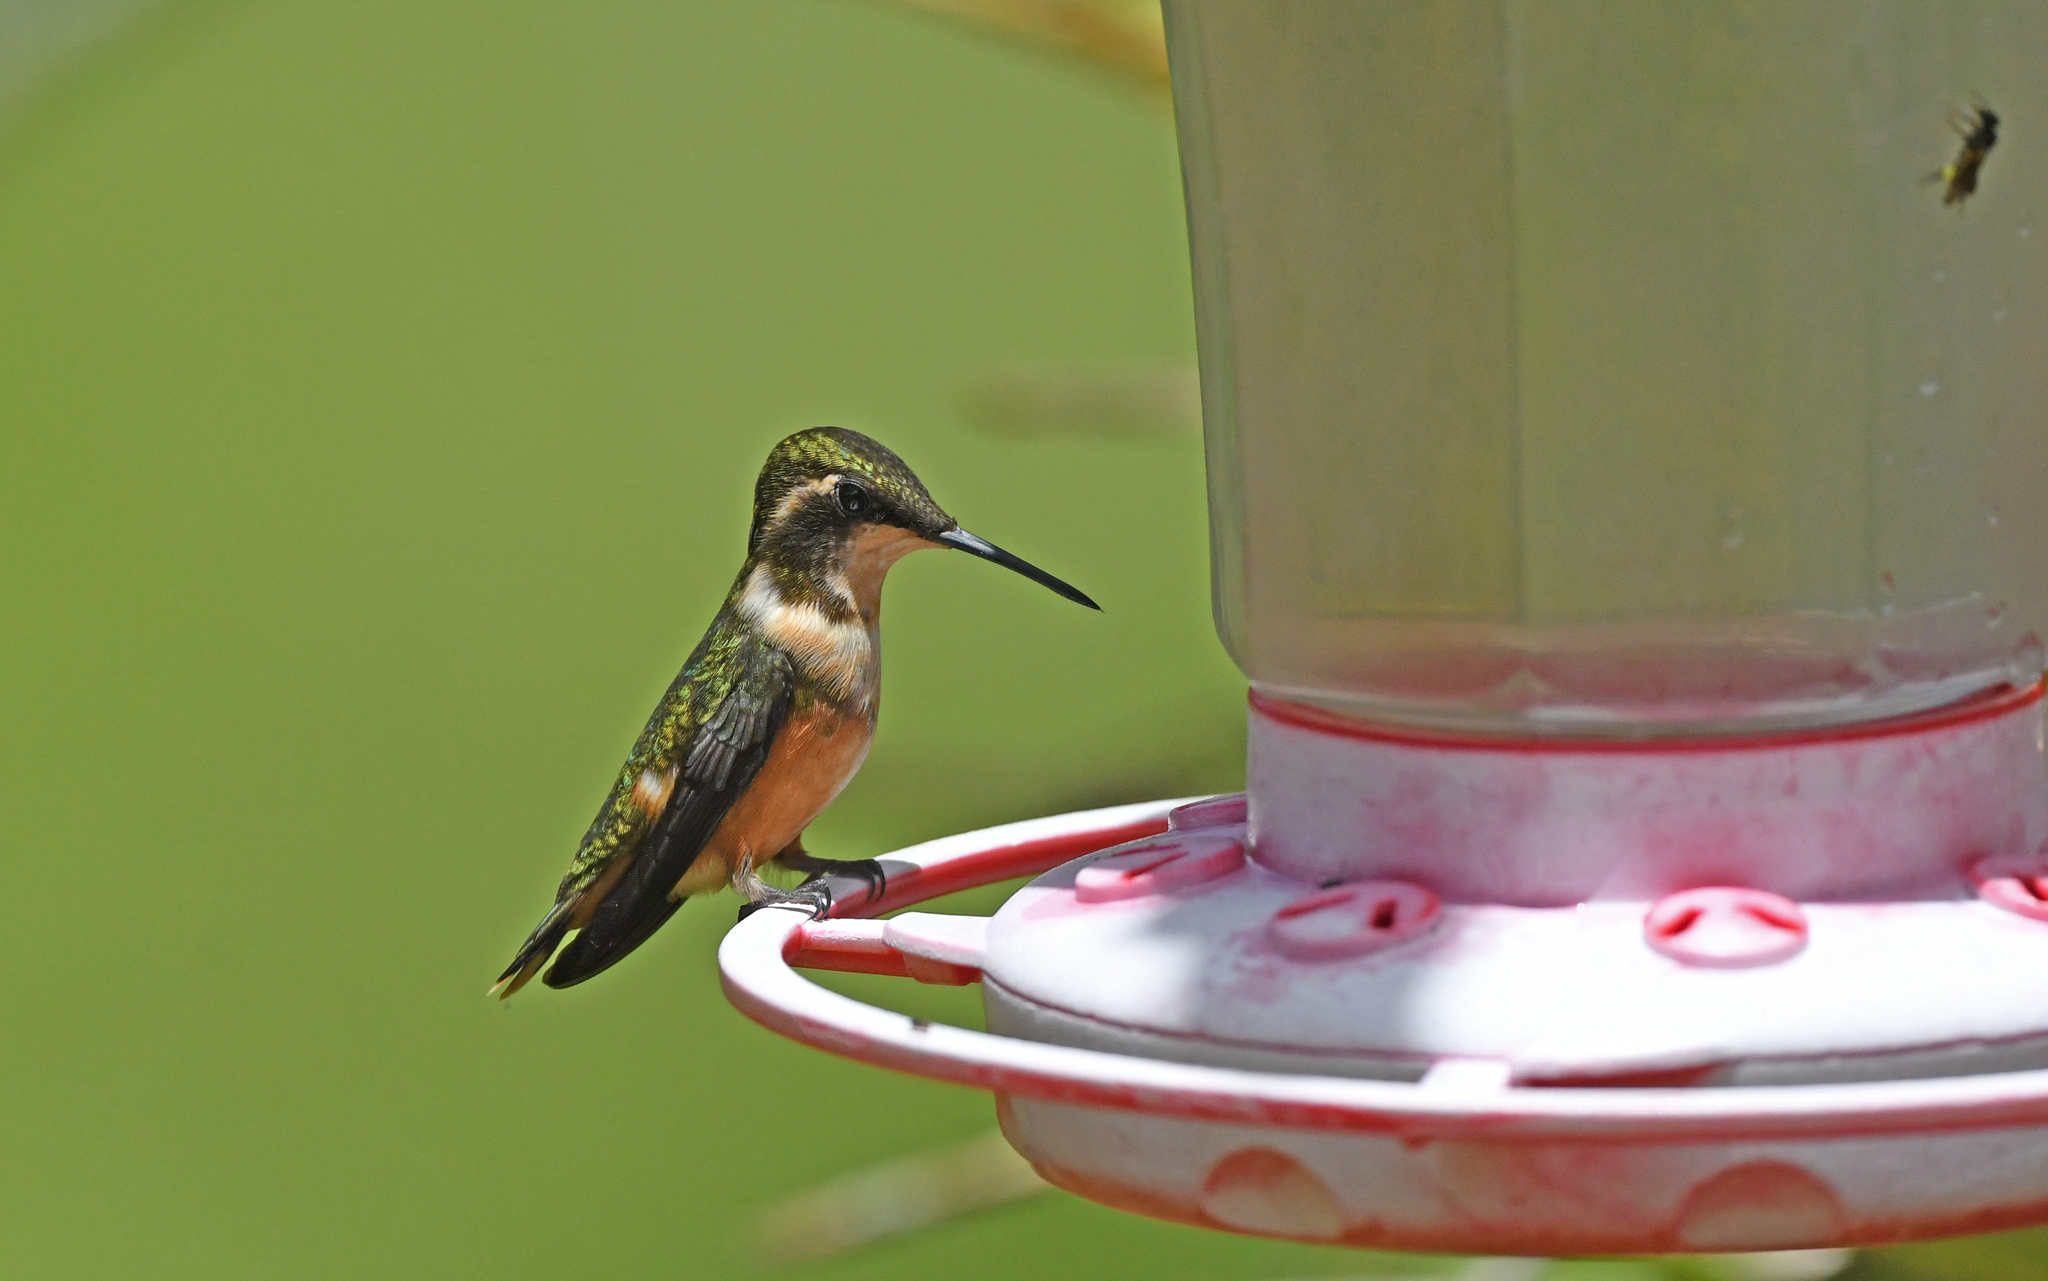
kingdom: Animalia
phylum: Chordata
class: Aves
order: Apodiformes
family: Trochilidae
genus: Calliphlox
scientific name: Calliphlox mitchellii
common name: Purple-throated woodstar
